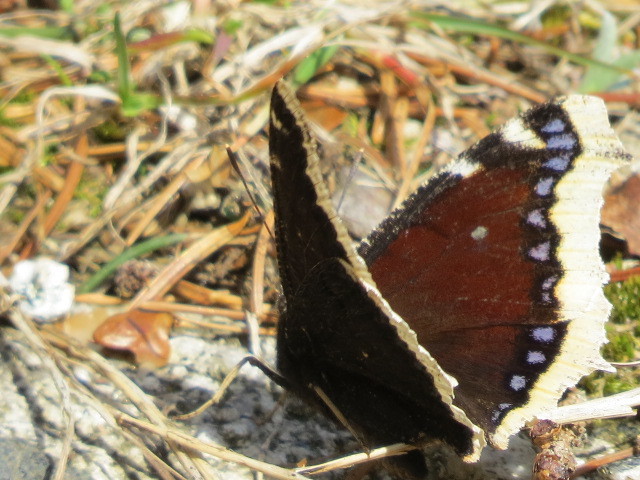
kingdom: Animalia
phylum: Arthropoda
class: Insecta
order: Lepidoptera
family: Nymphalidae
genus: Nymphalis
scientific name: Nymphalis antiopa
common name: Camberwell beauty
